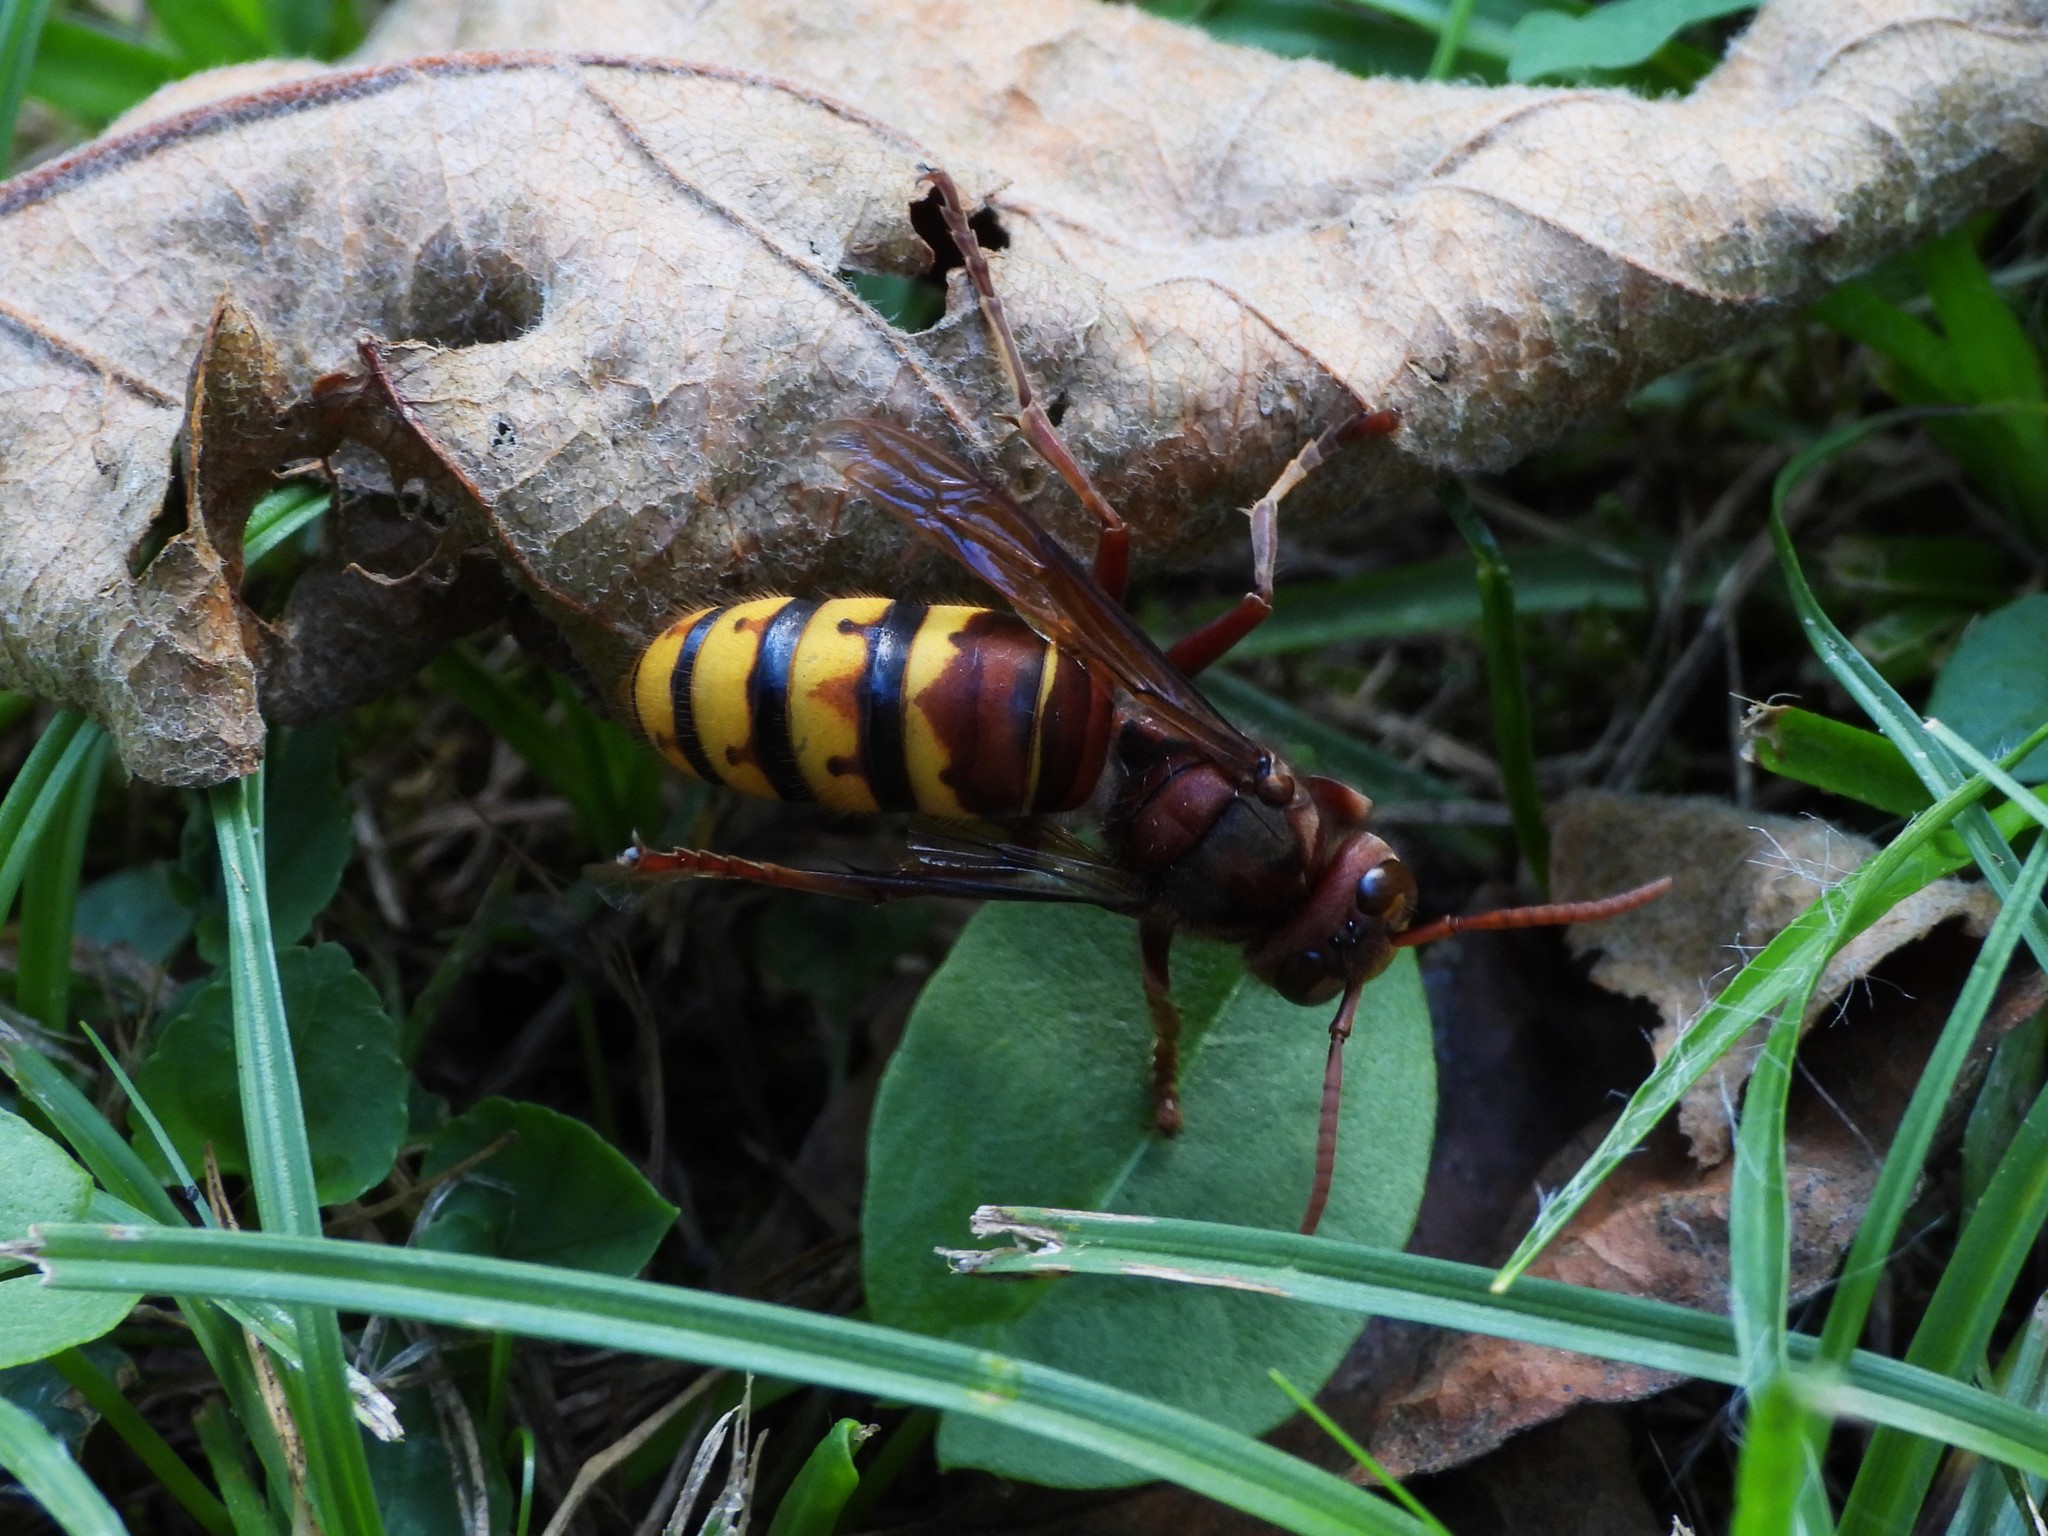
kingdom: Animalia
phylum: Arthropoda
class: Insecta
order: Hymenoptera
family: Vespidae
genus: Vespa
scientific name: Vespa crabro
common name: Hornet
